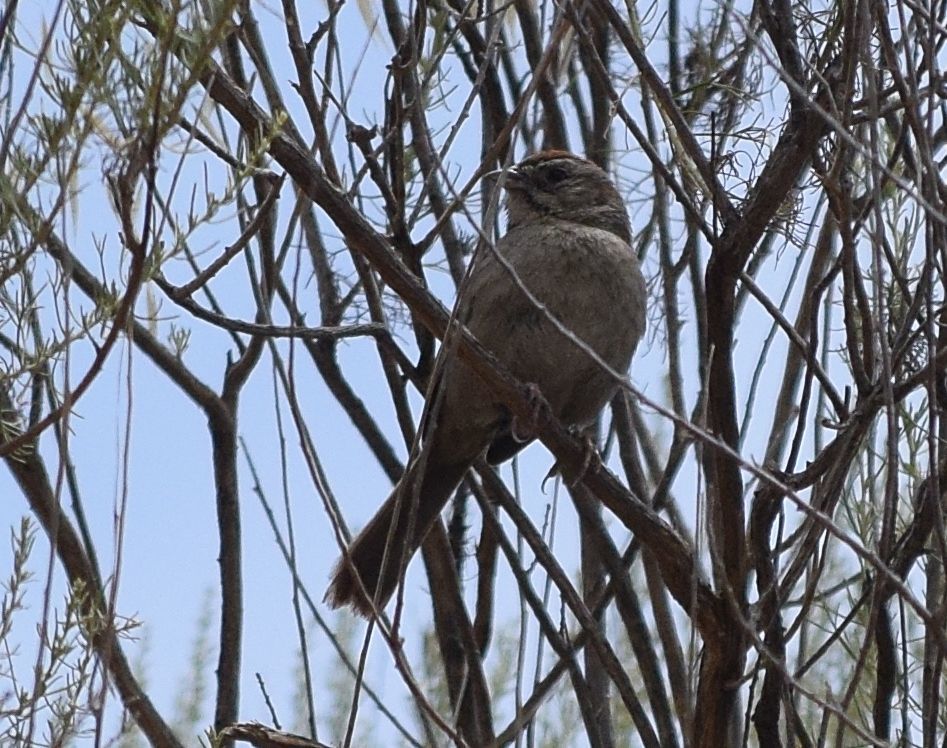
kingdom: Animalia
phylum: Chordata
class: Aves
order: Passeriformes
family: Passerellidae
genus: Aimophila
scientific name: Aimophila ruficeps
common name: Rufous-crowned sparrow
